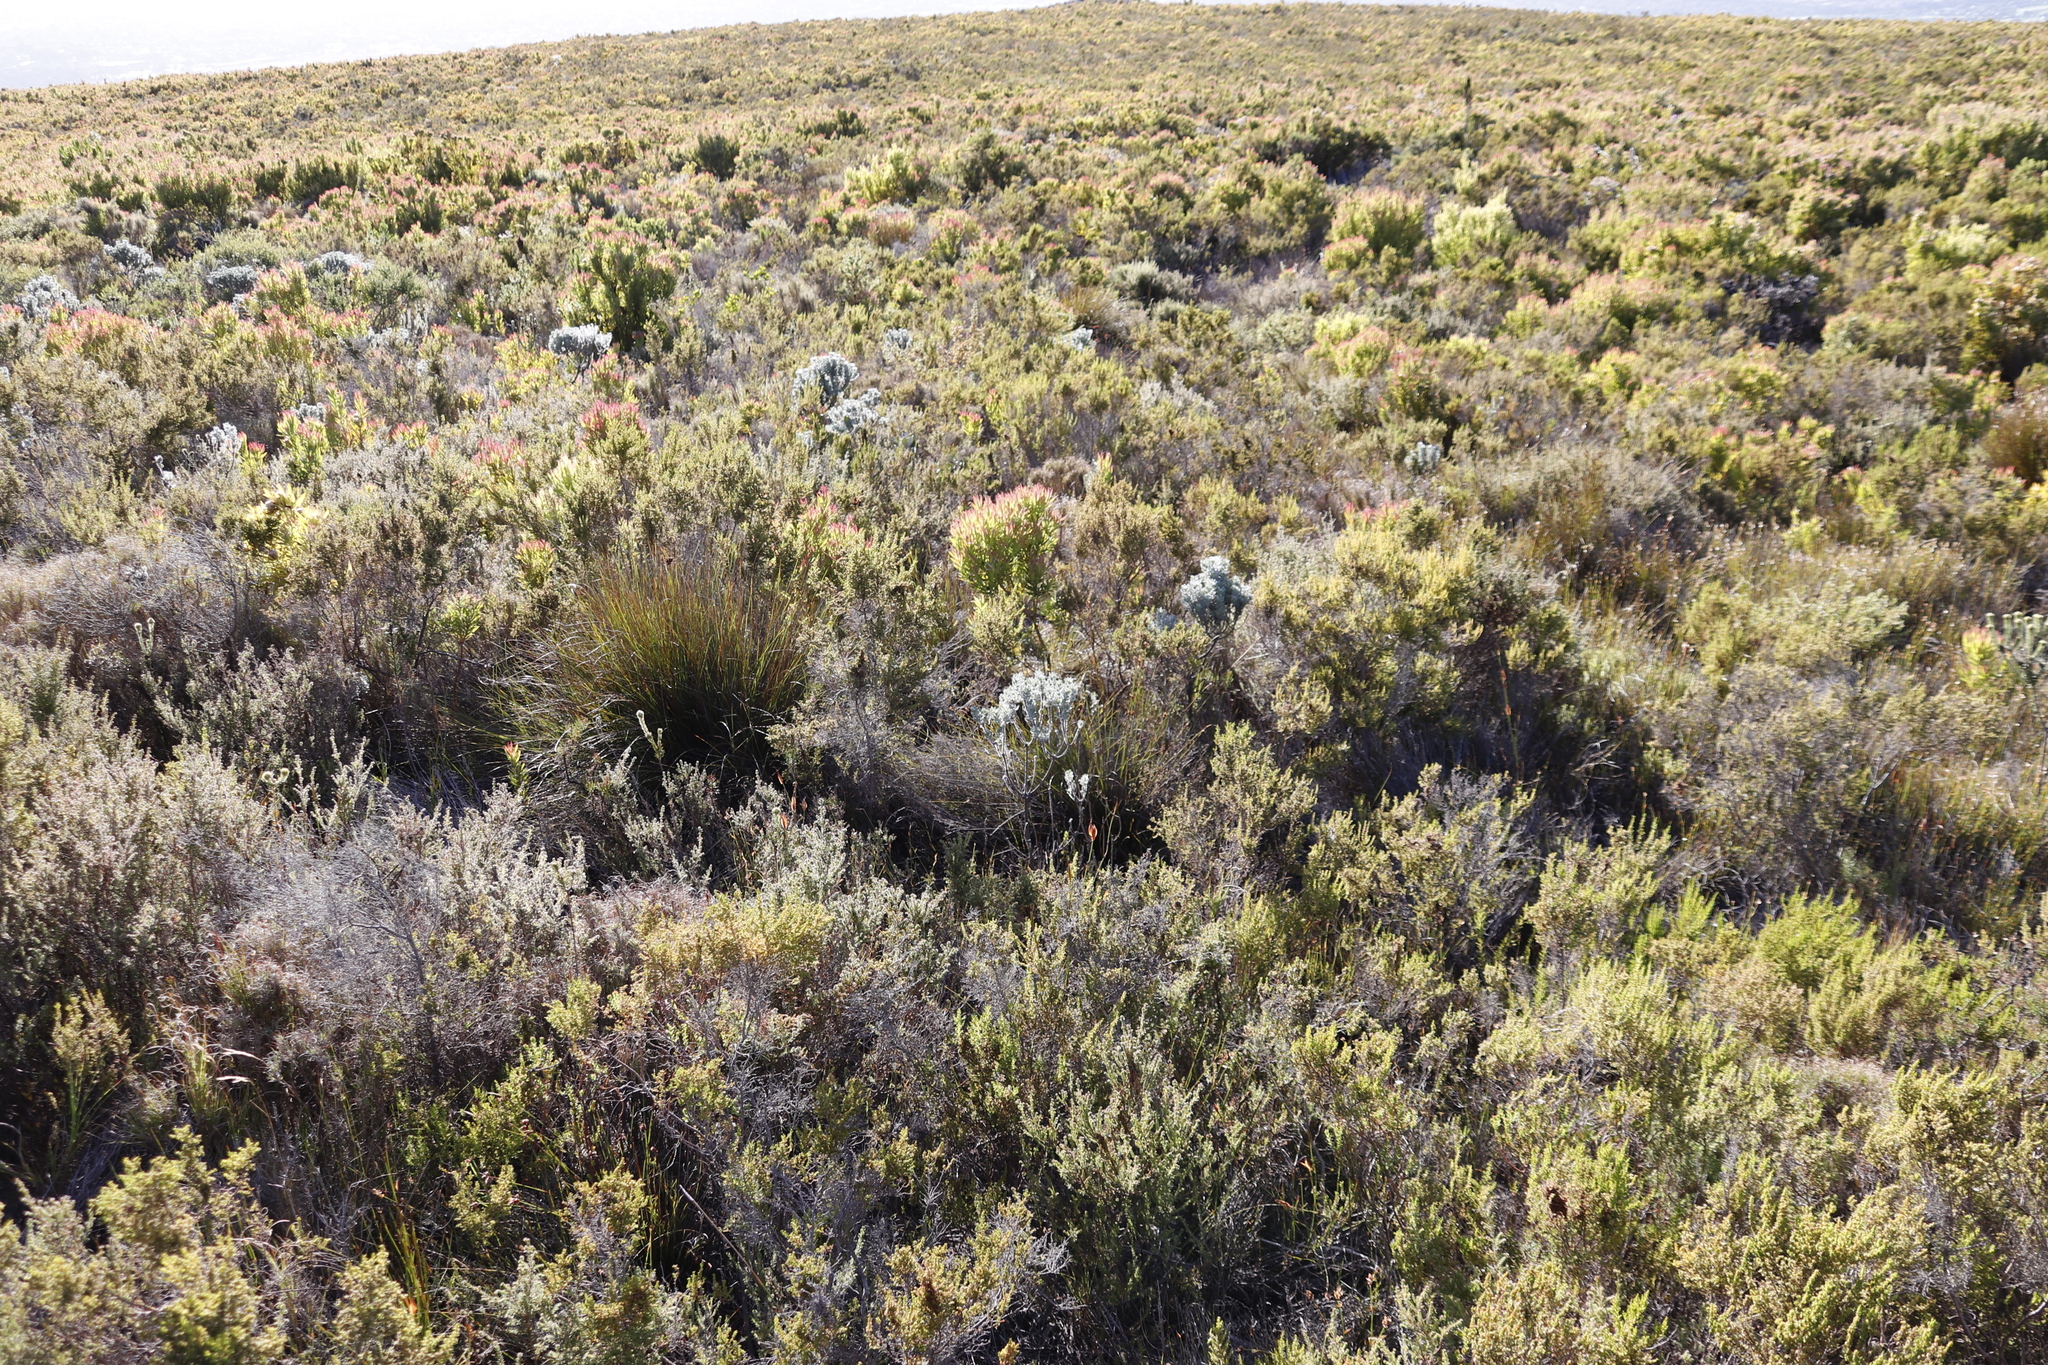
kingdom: Plantae
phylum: Tracheophyta
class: Magnoliopsida
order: Proteales
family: Proteaceae
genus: Leucadendron
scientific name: Leucadendron xanthoconus
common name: Sickle-leaf conebush
